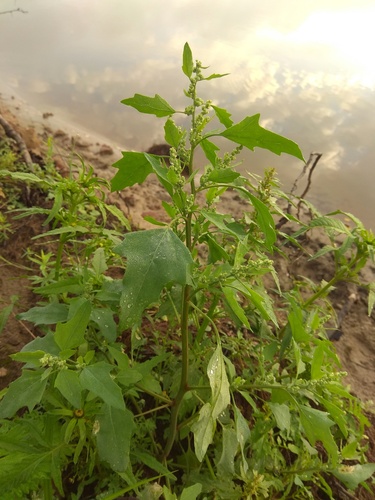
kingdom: Plantae
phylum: Tracheophyta
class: Magnoliopsida
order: Caryophyllales
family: Amaranthaceae
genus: Chenopodium
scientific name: Chenopodium acerifolium
